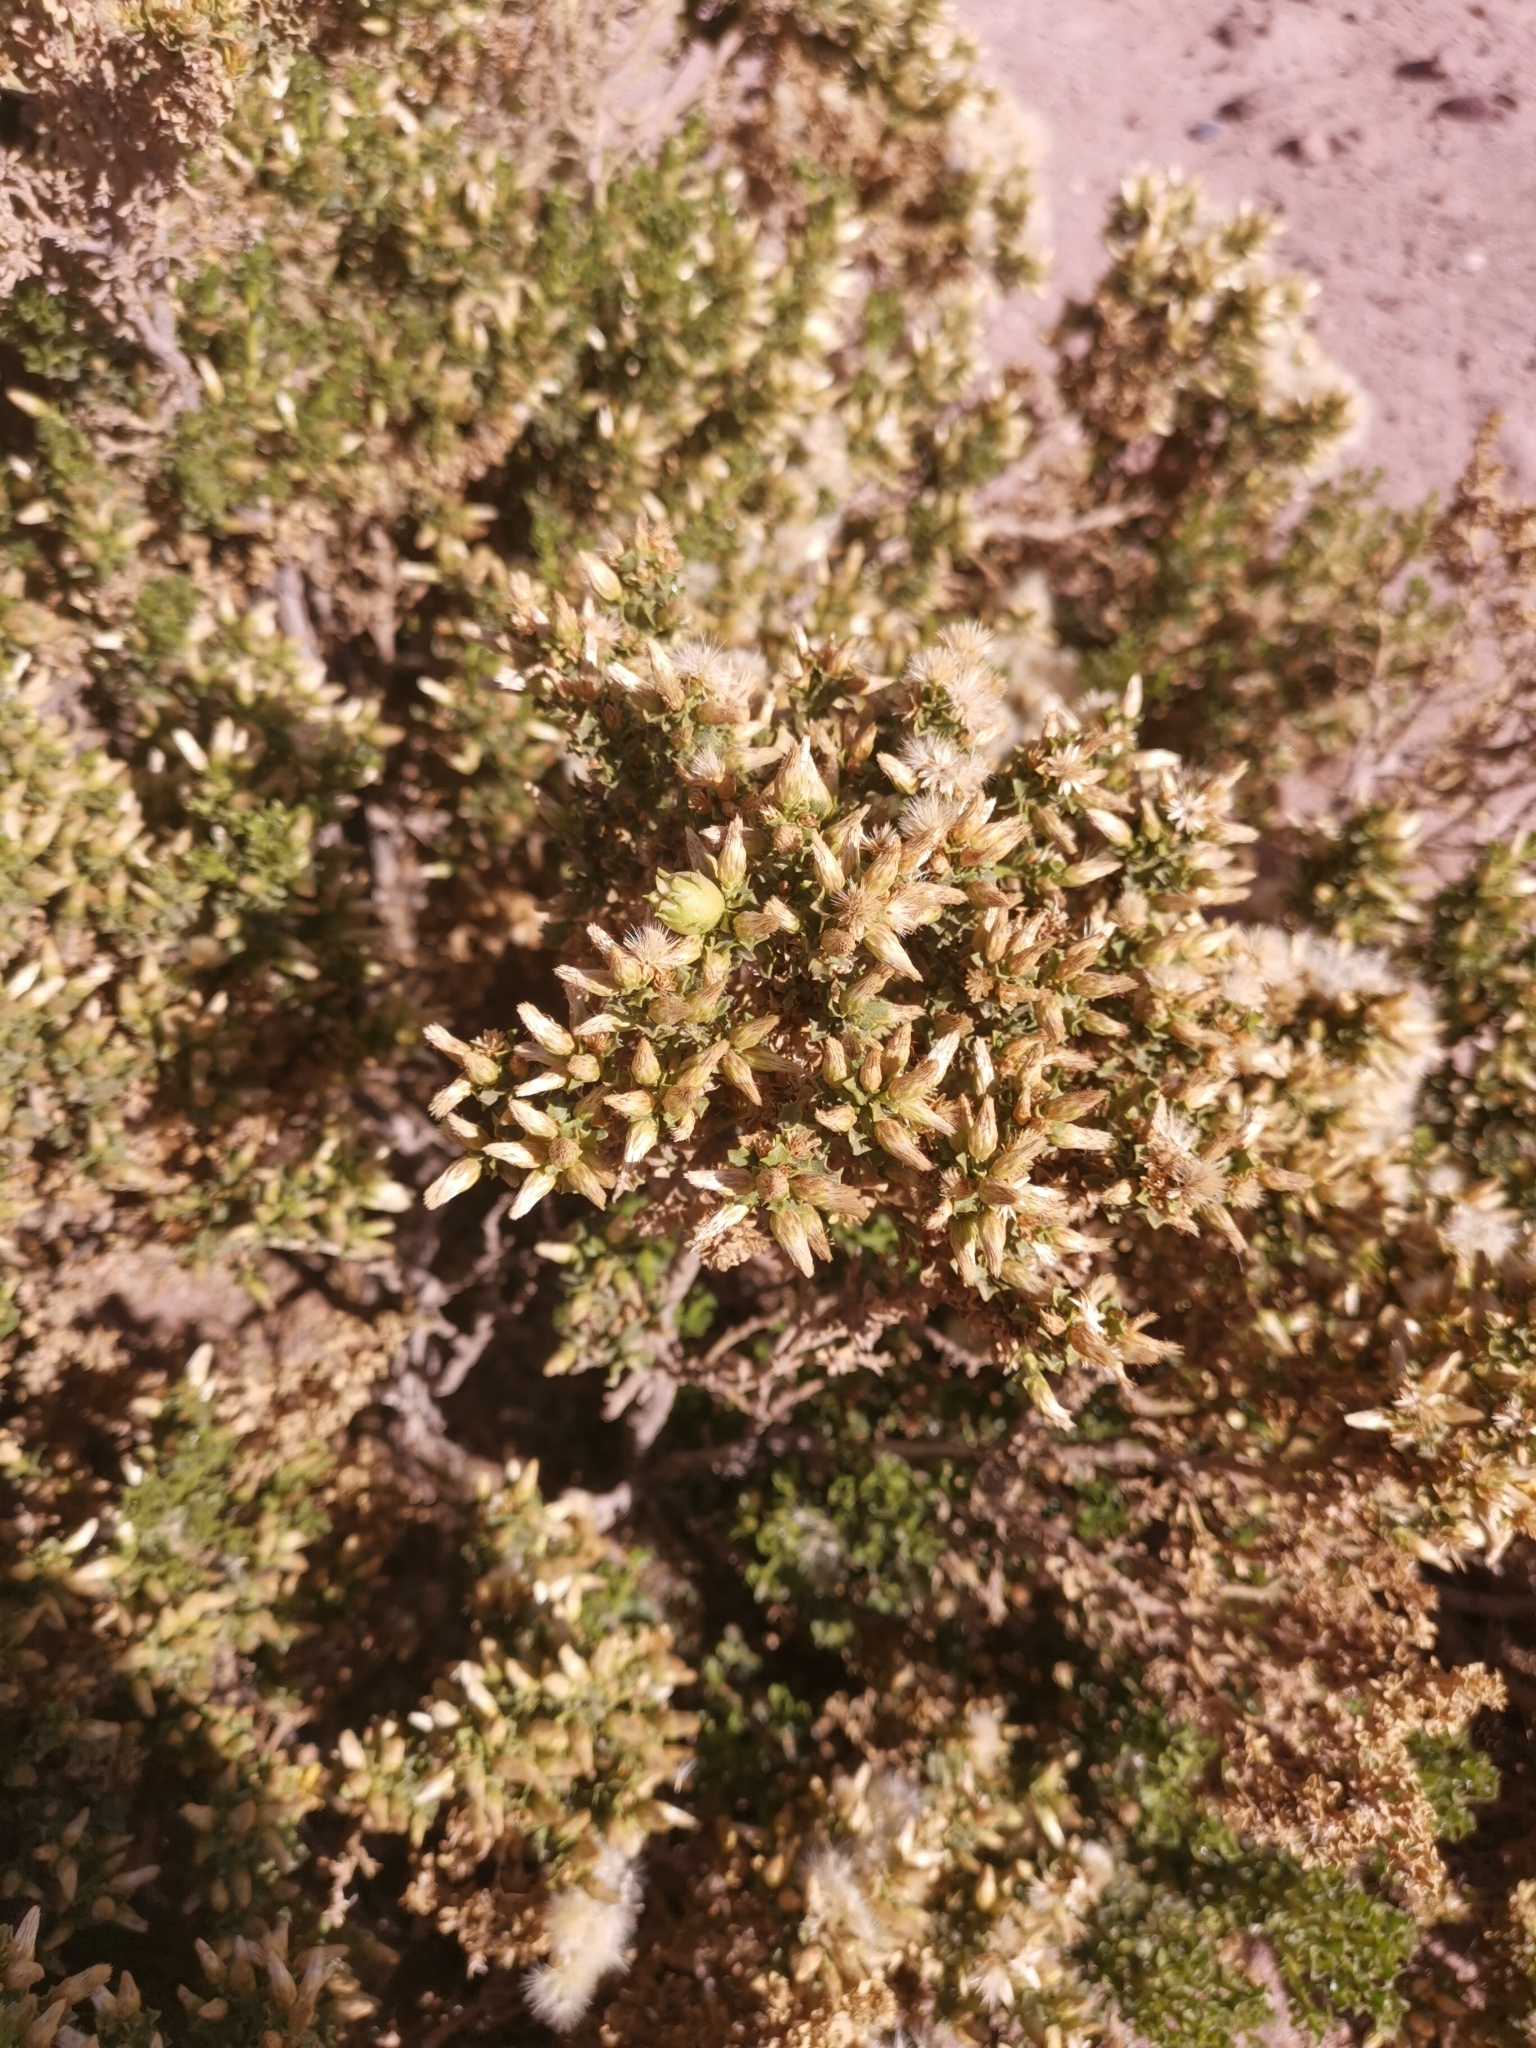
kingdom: Plantae
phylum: Tracheophyta
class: Magnoliopsida
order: Asterales
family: Asteraceae
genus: Baccharis
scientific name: Baccharis tola
